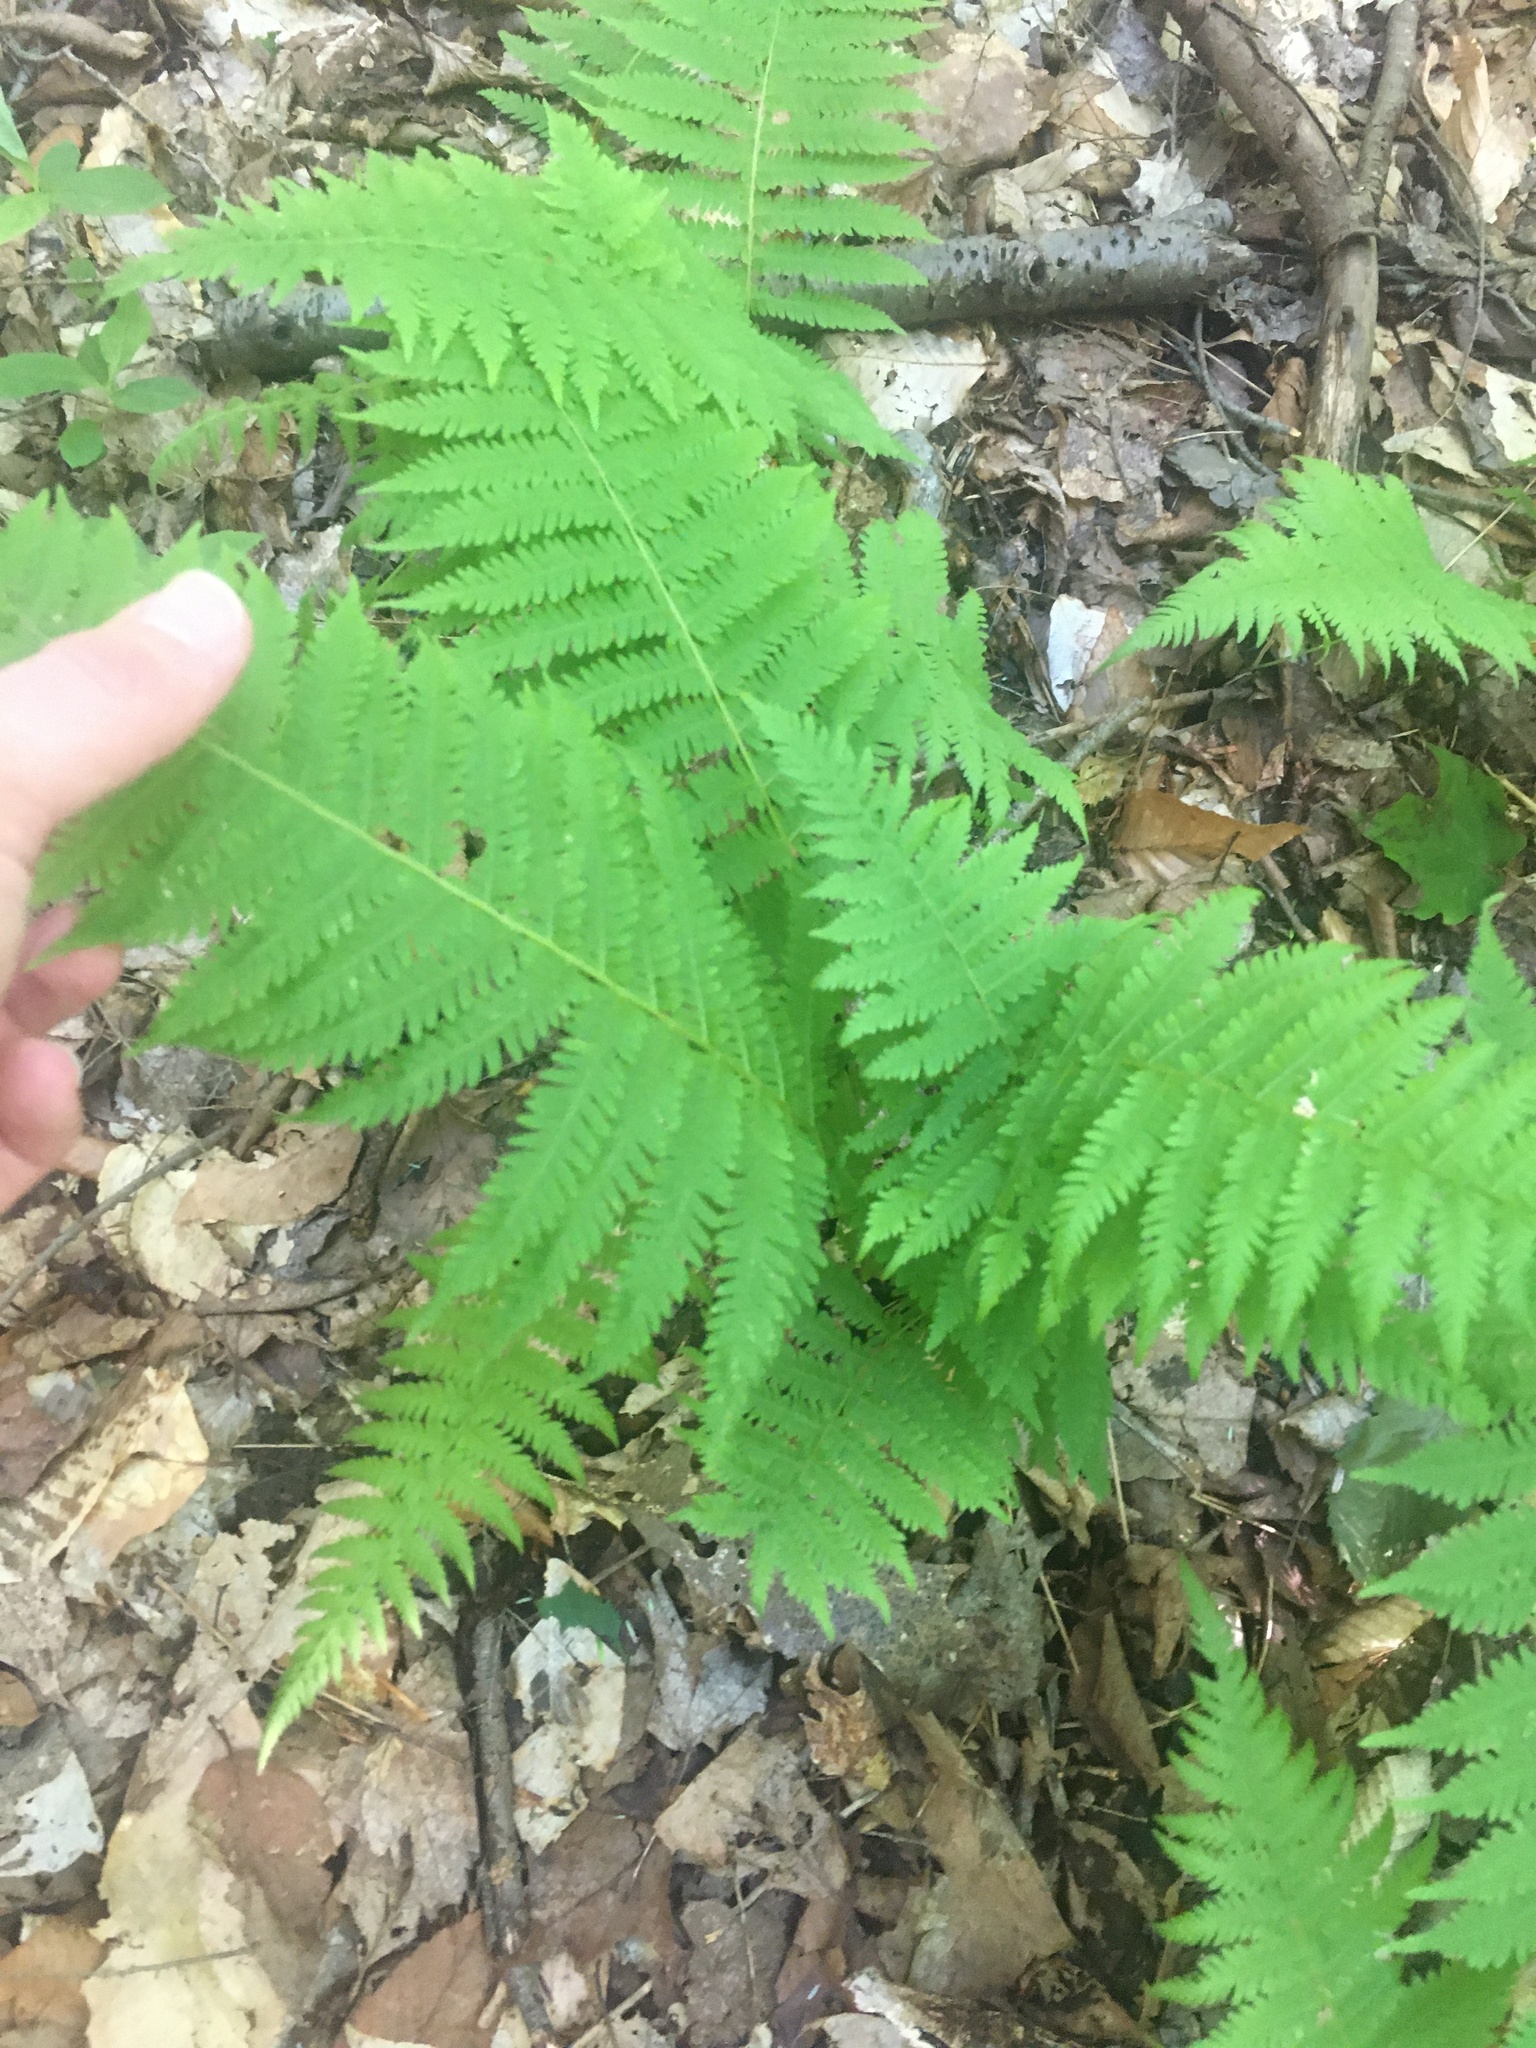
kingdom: Plantae
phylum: Tracheophyta
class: Polypodiopsida
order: Polypodiales
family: Thelypteridaceae
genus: Amauropelta
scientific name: Amauropelta noveboracensis
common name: New york fern
